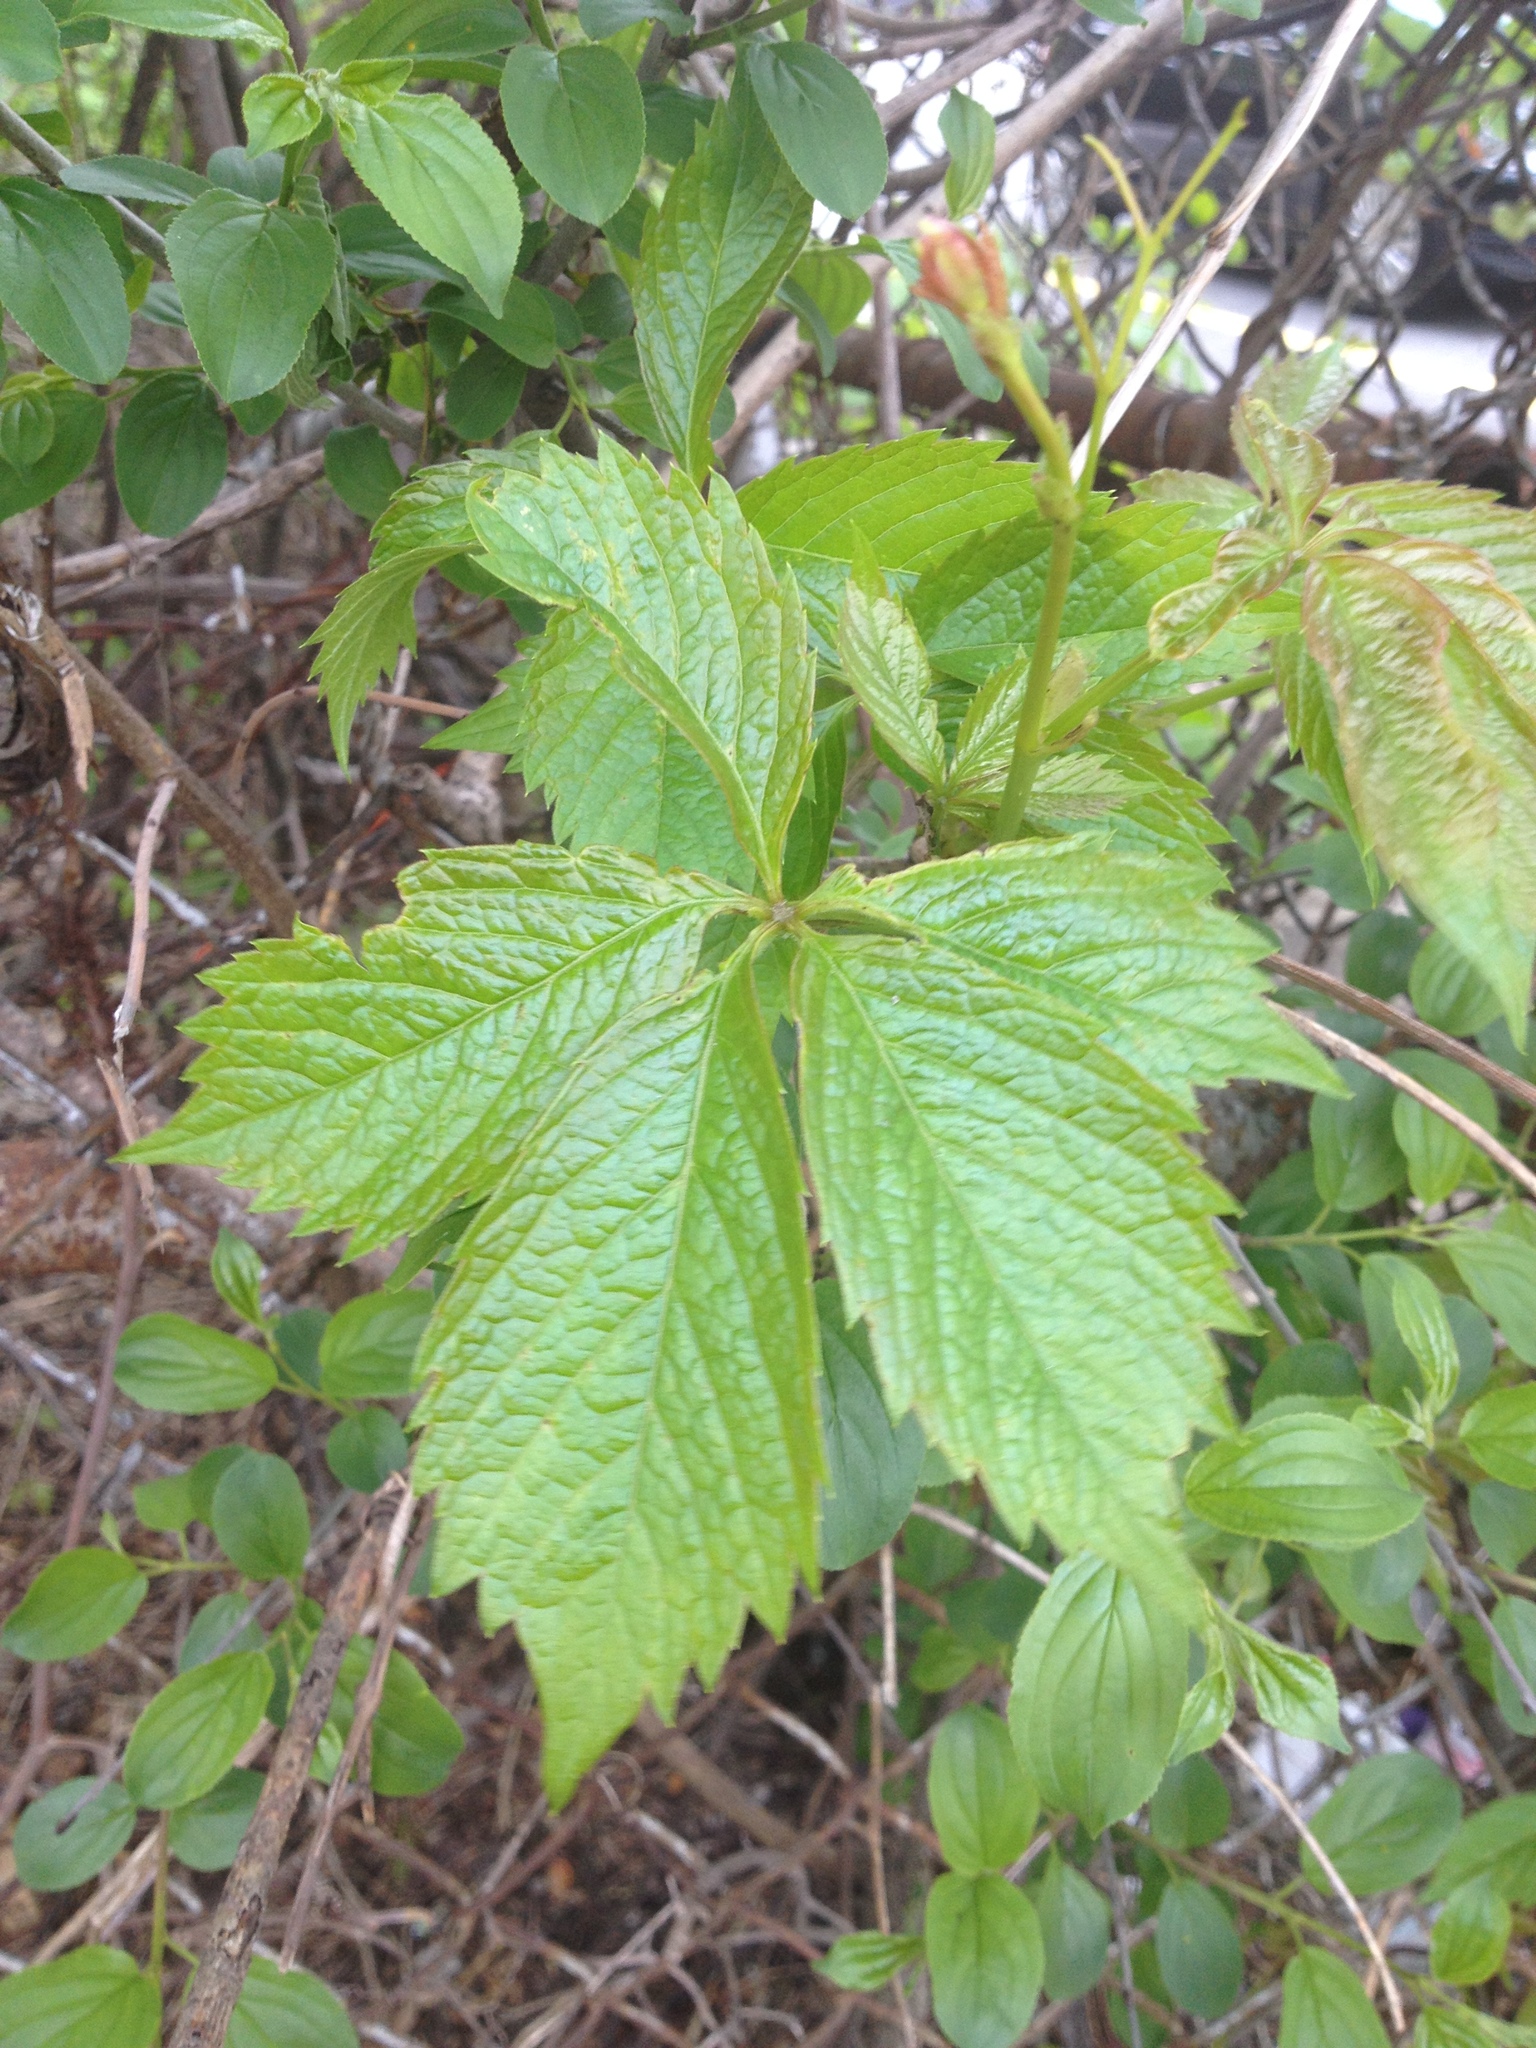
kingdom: Plantae
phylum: Tracheophyta
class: Magnoliopsida
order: Vitales
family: Vitaceae
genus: Parthenocissus
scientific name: Parthenocissus quinquefolia
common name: Virginia-creeper
